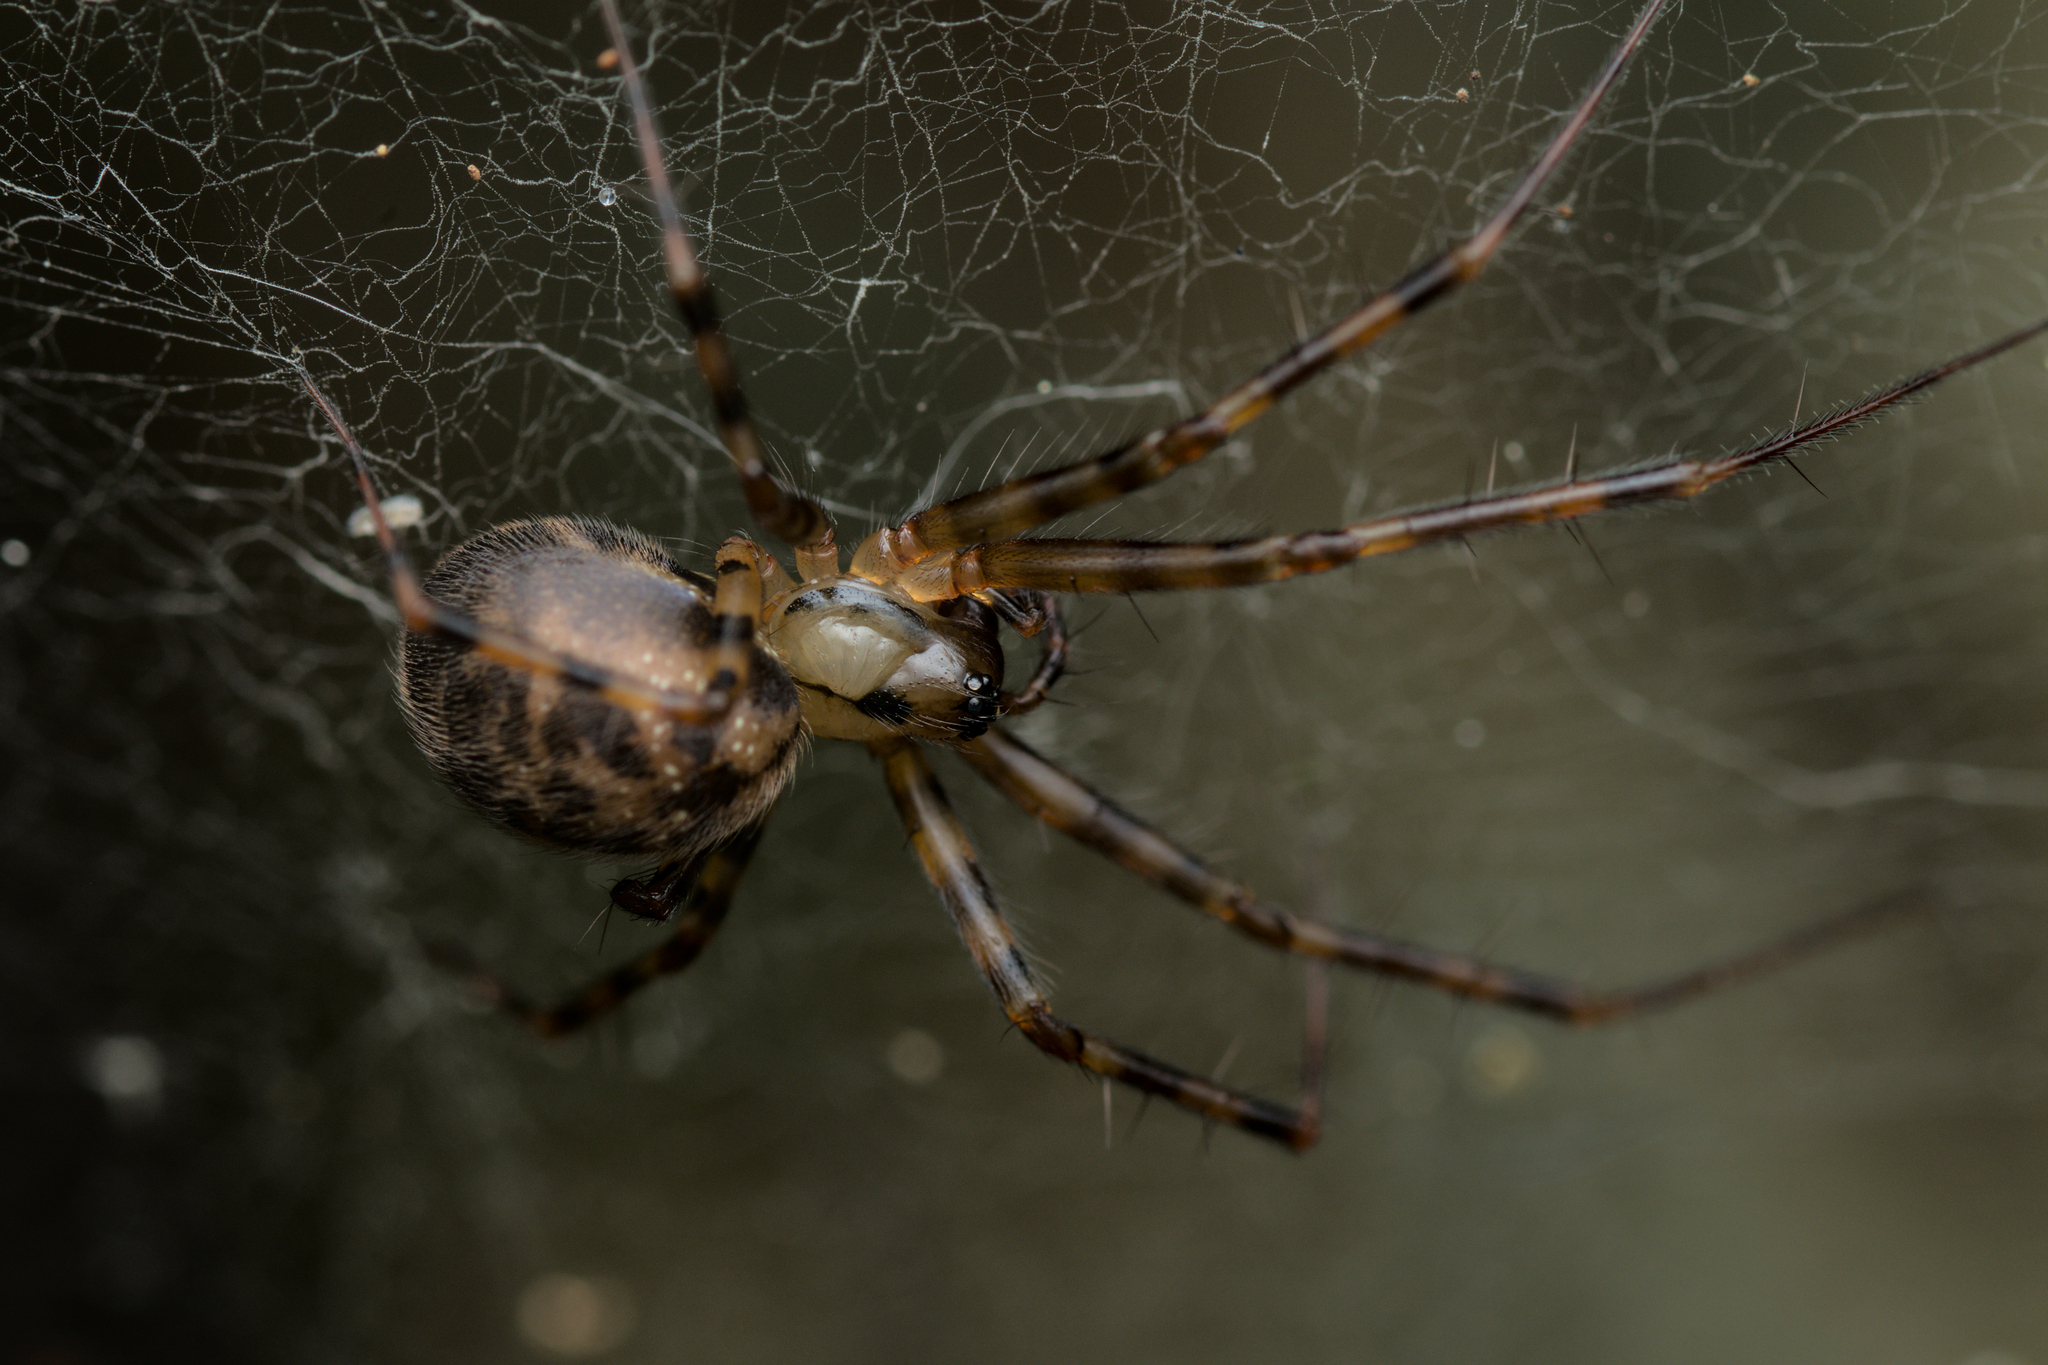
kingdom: Animalia
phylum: Arthropoda
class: Arachnida
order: Araneae
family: Linyphiidae
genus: Labulla
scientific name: Labulla thoracica
